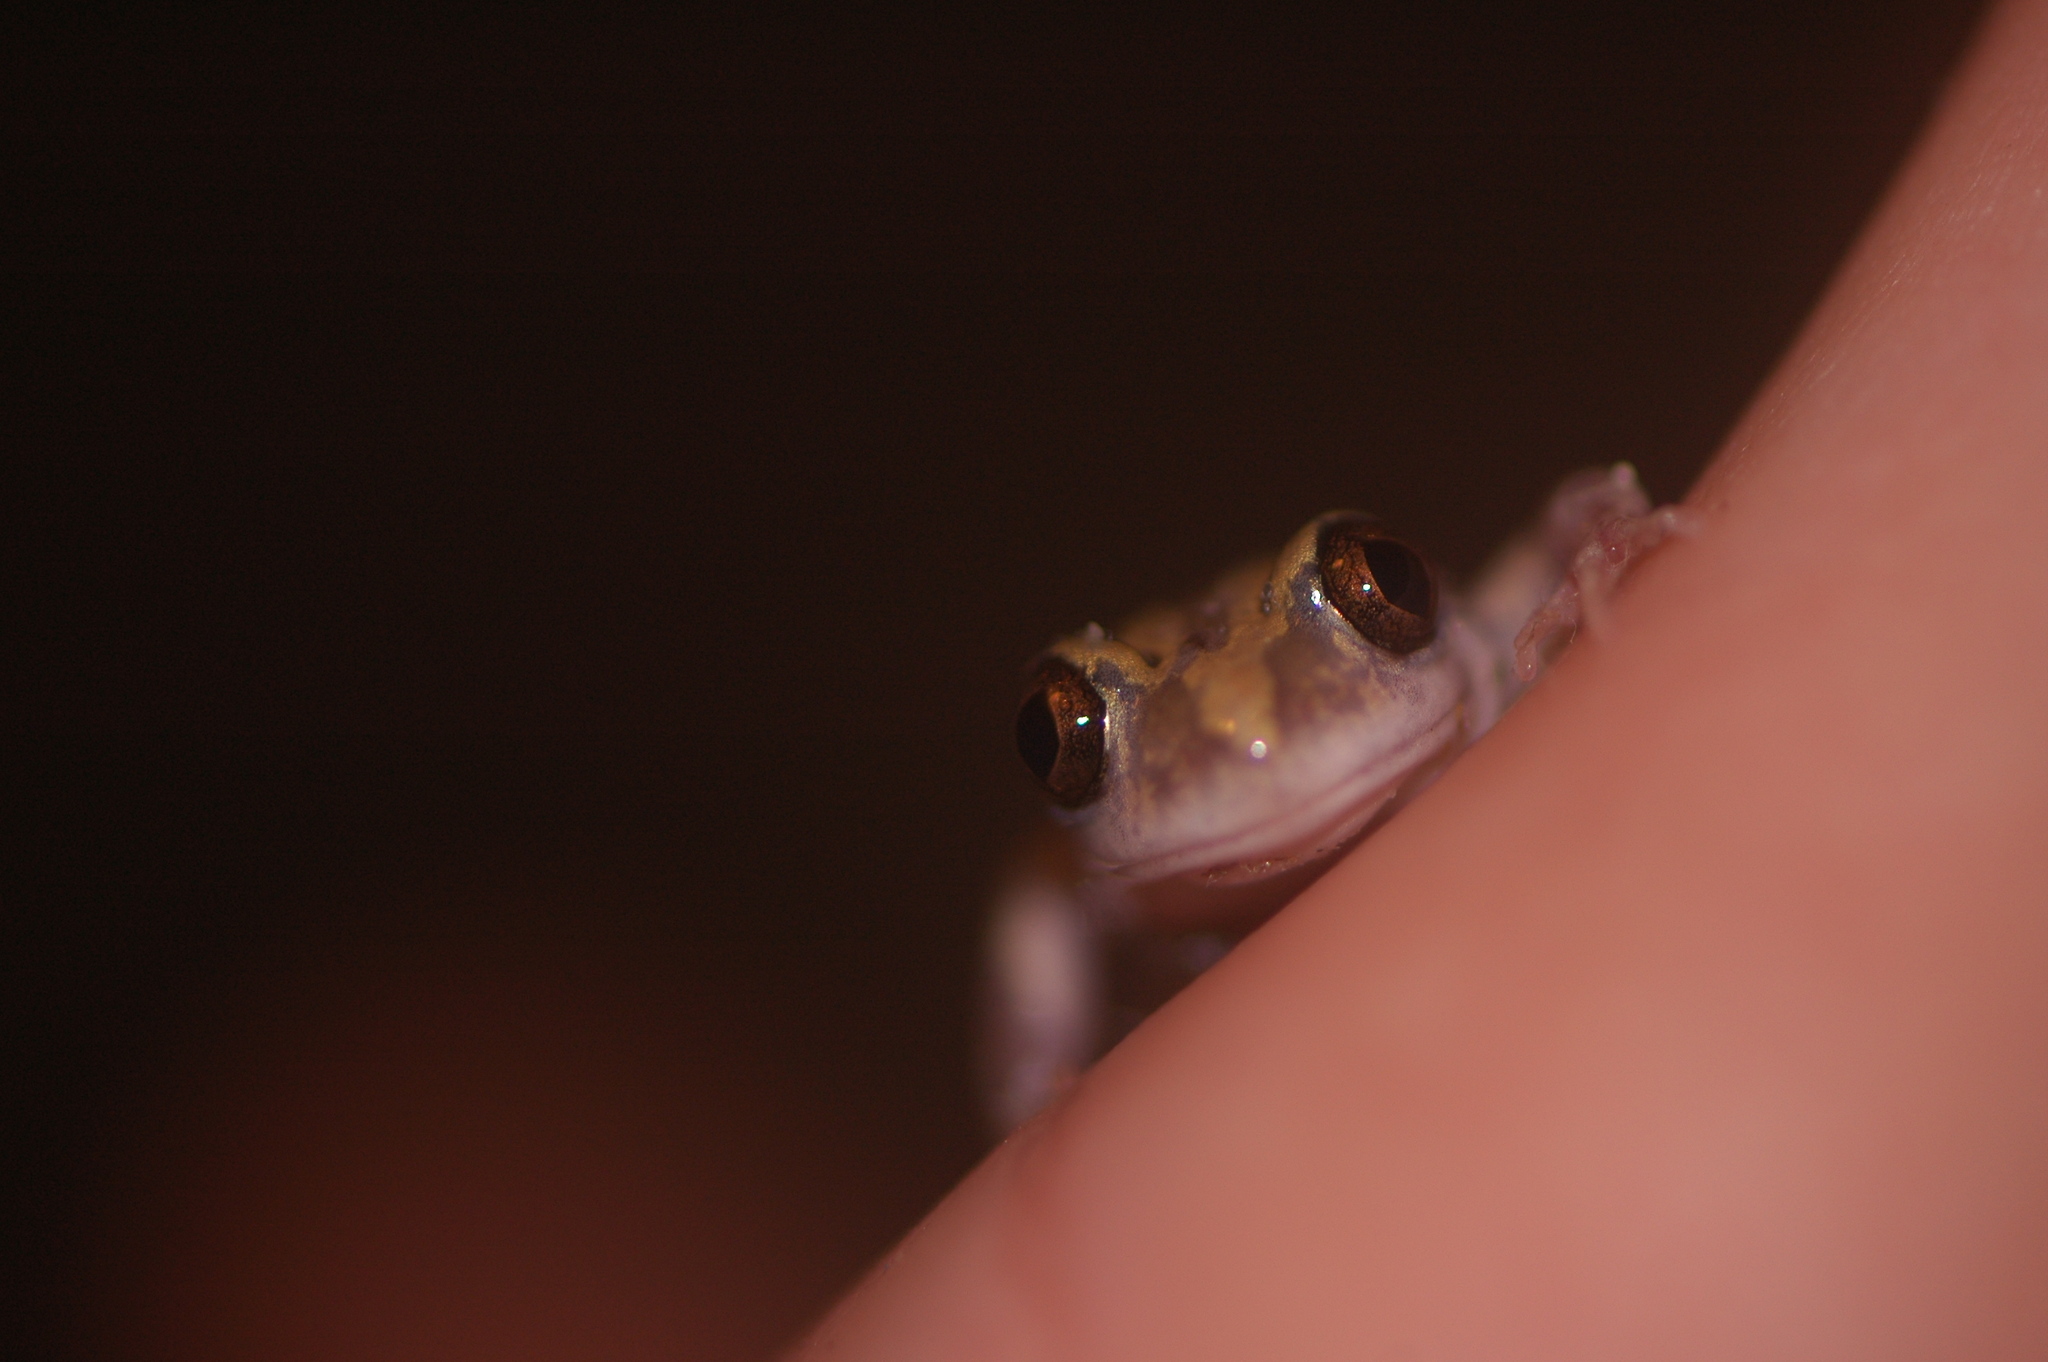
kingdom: Animalia
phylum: Chordata
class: Amphibia
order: Anura
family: Hyperoliidae
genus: Kassina
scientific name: Kassina senegalensis
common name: Senegal land frog
